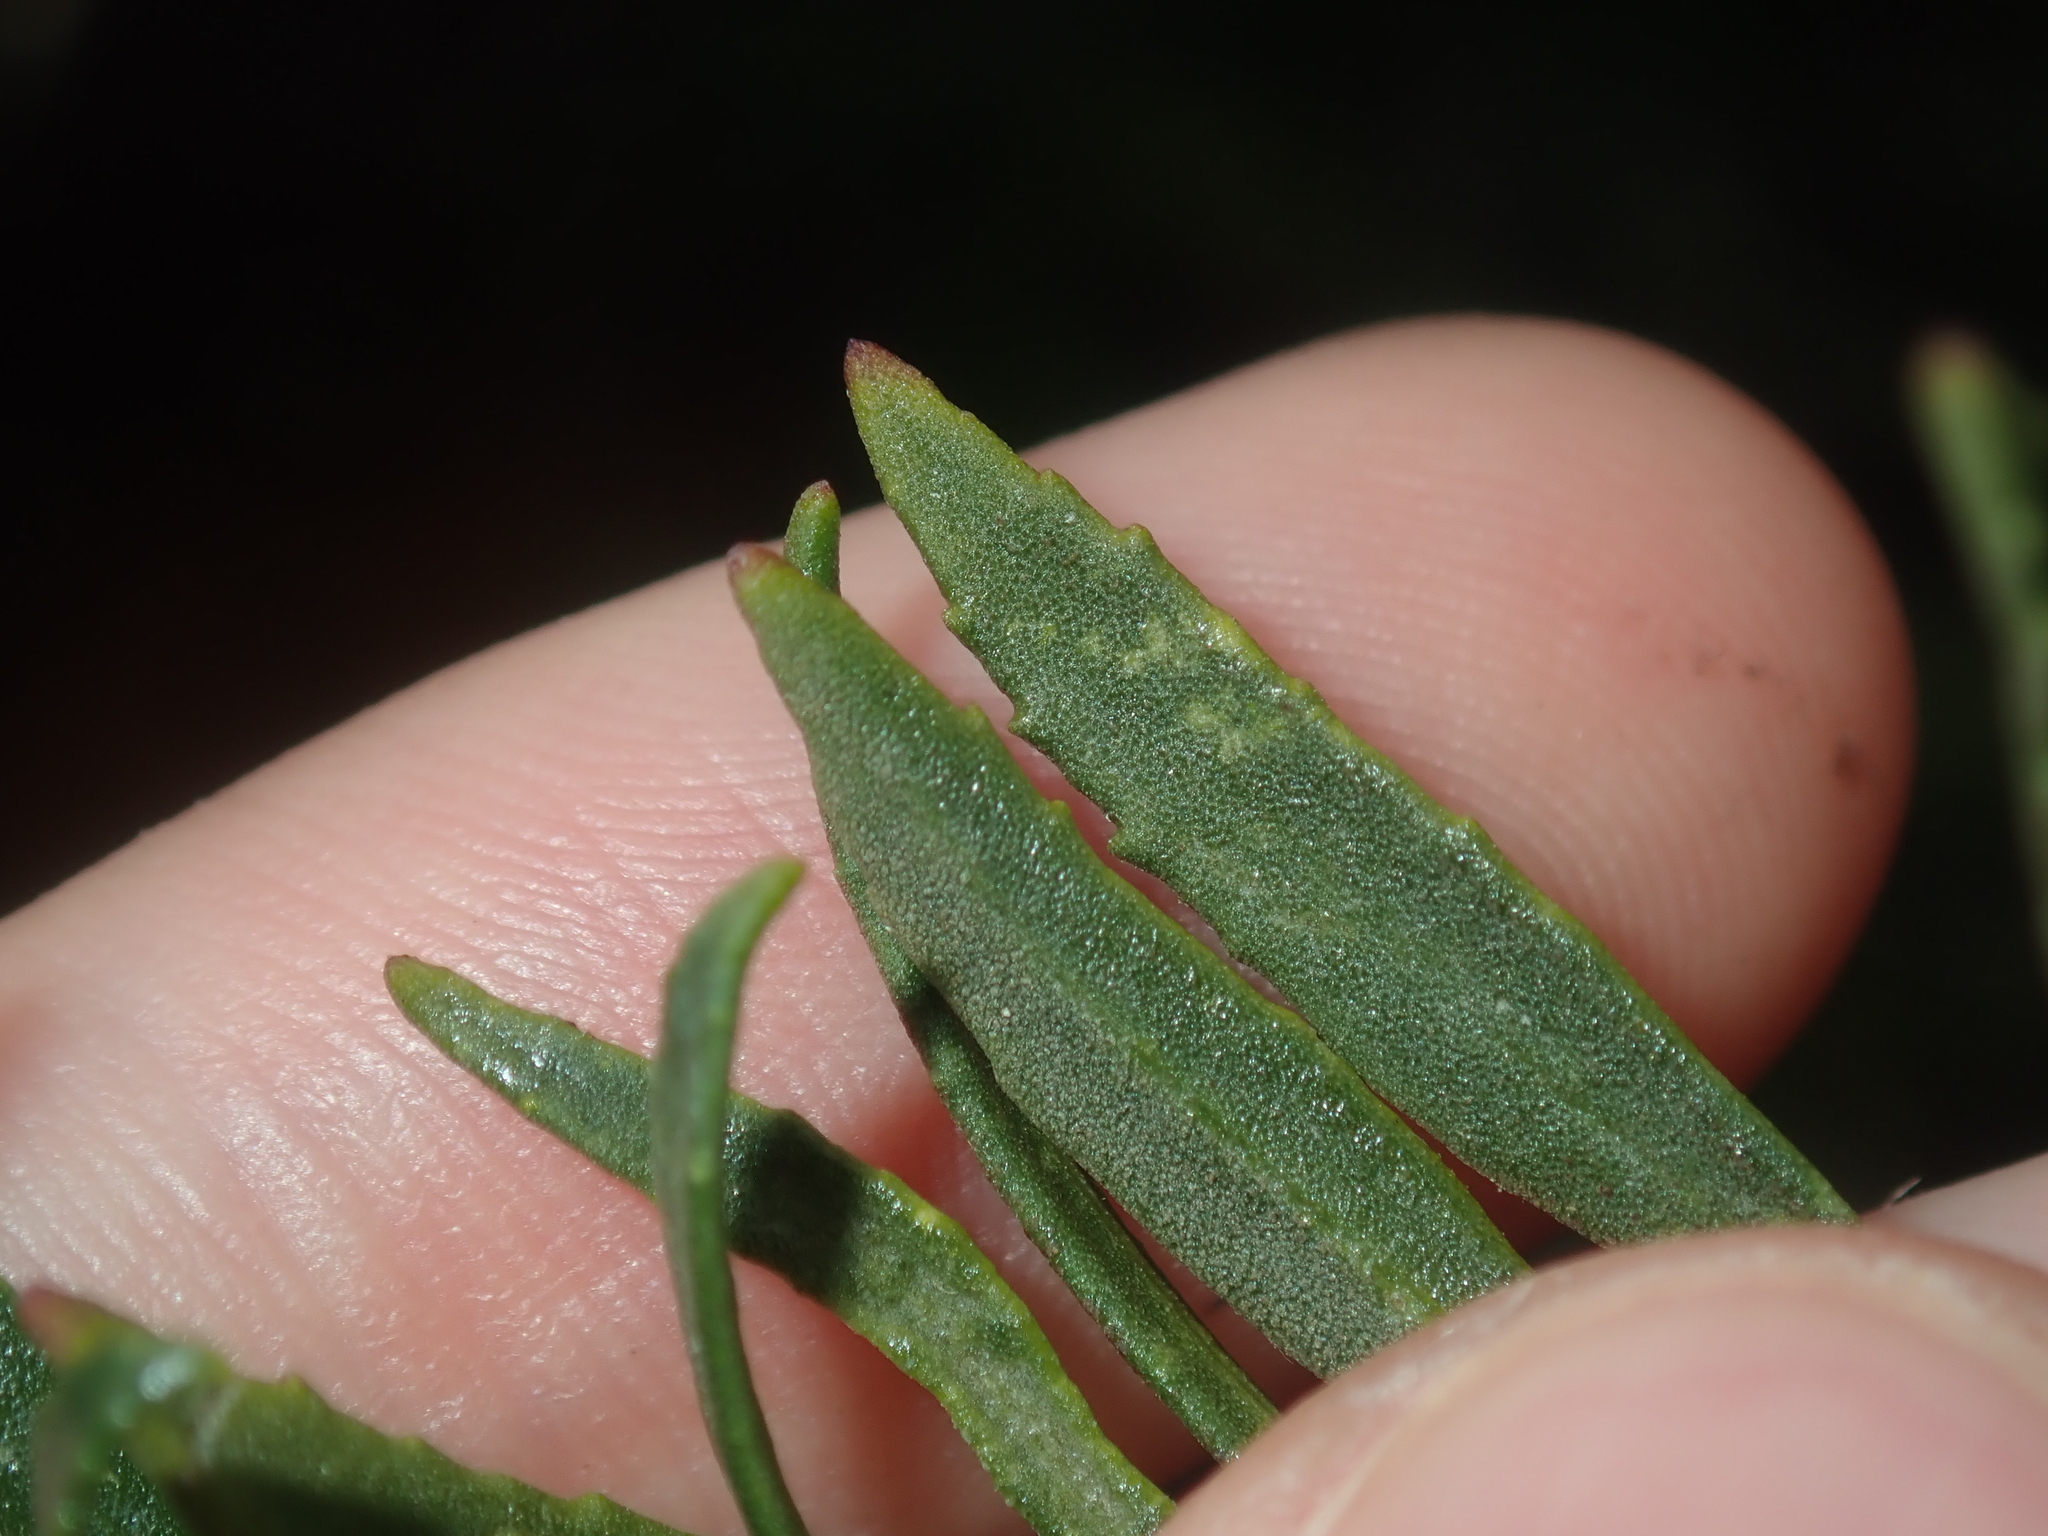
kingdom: Plantae
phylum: Tracheophyta
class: Magnoliopsida
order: Lamiales
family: Scrophulariaceae
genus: Eremophila
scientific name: Eremophila decipiens
